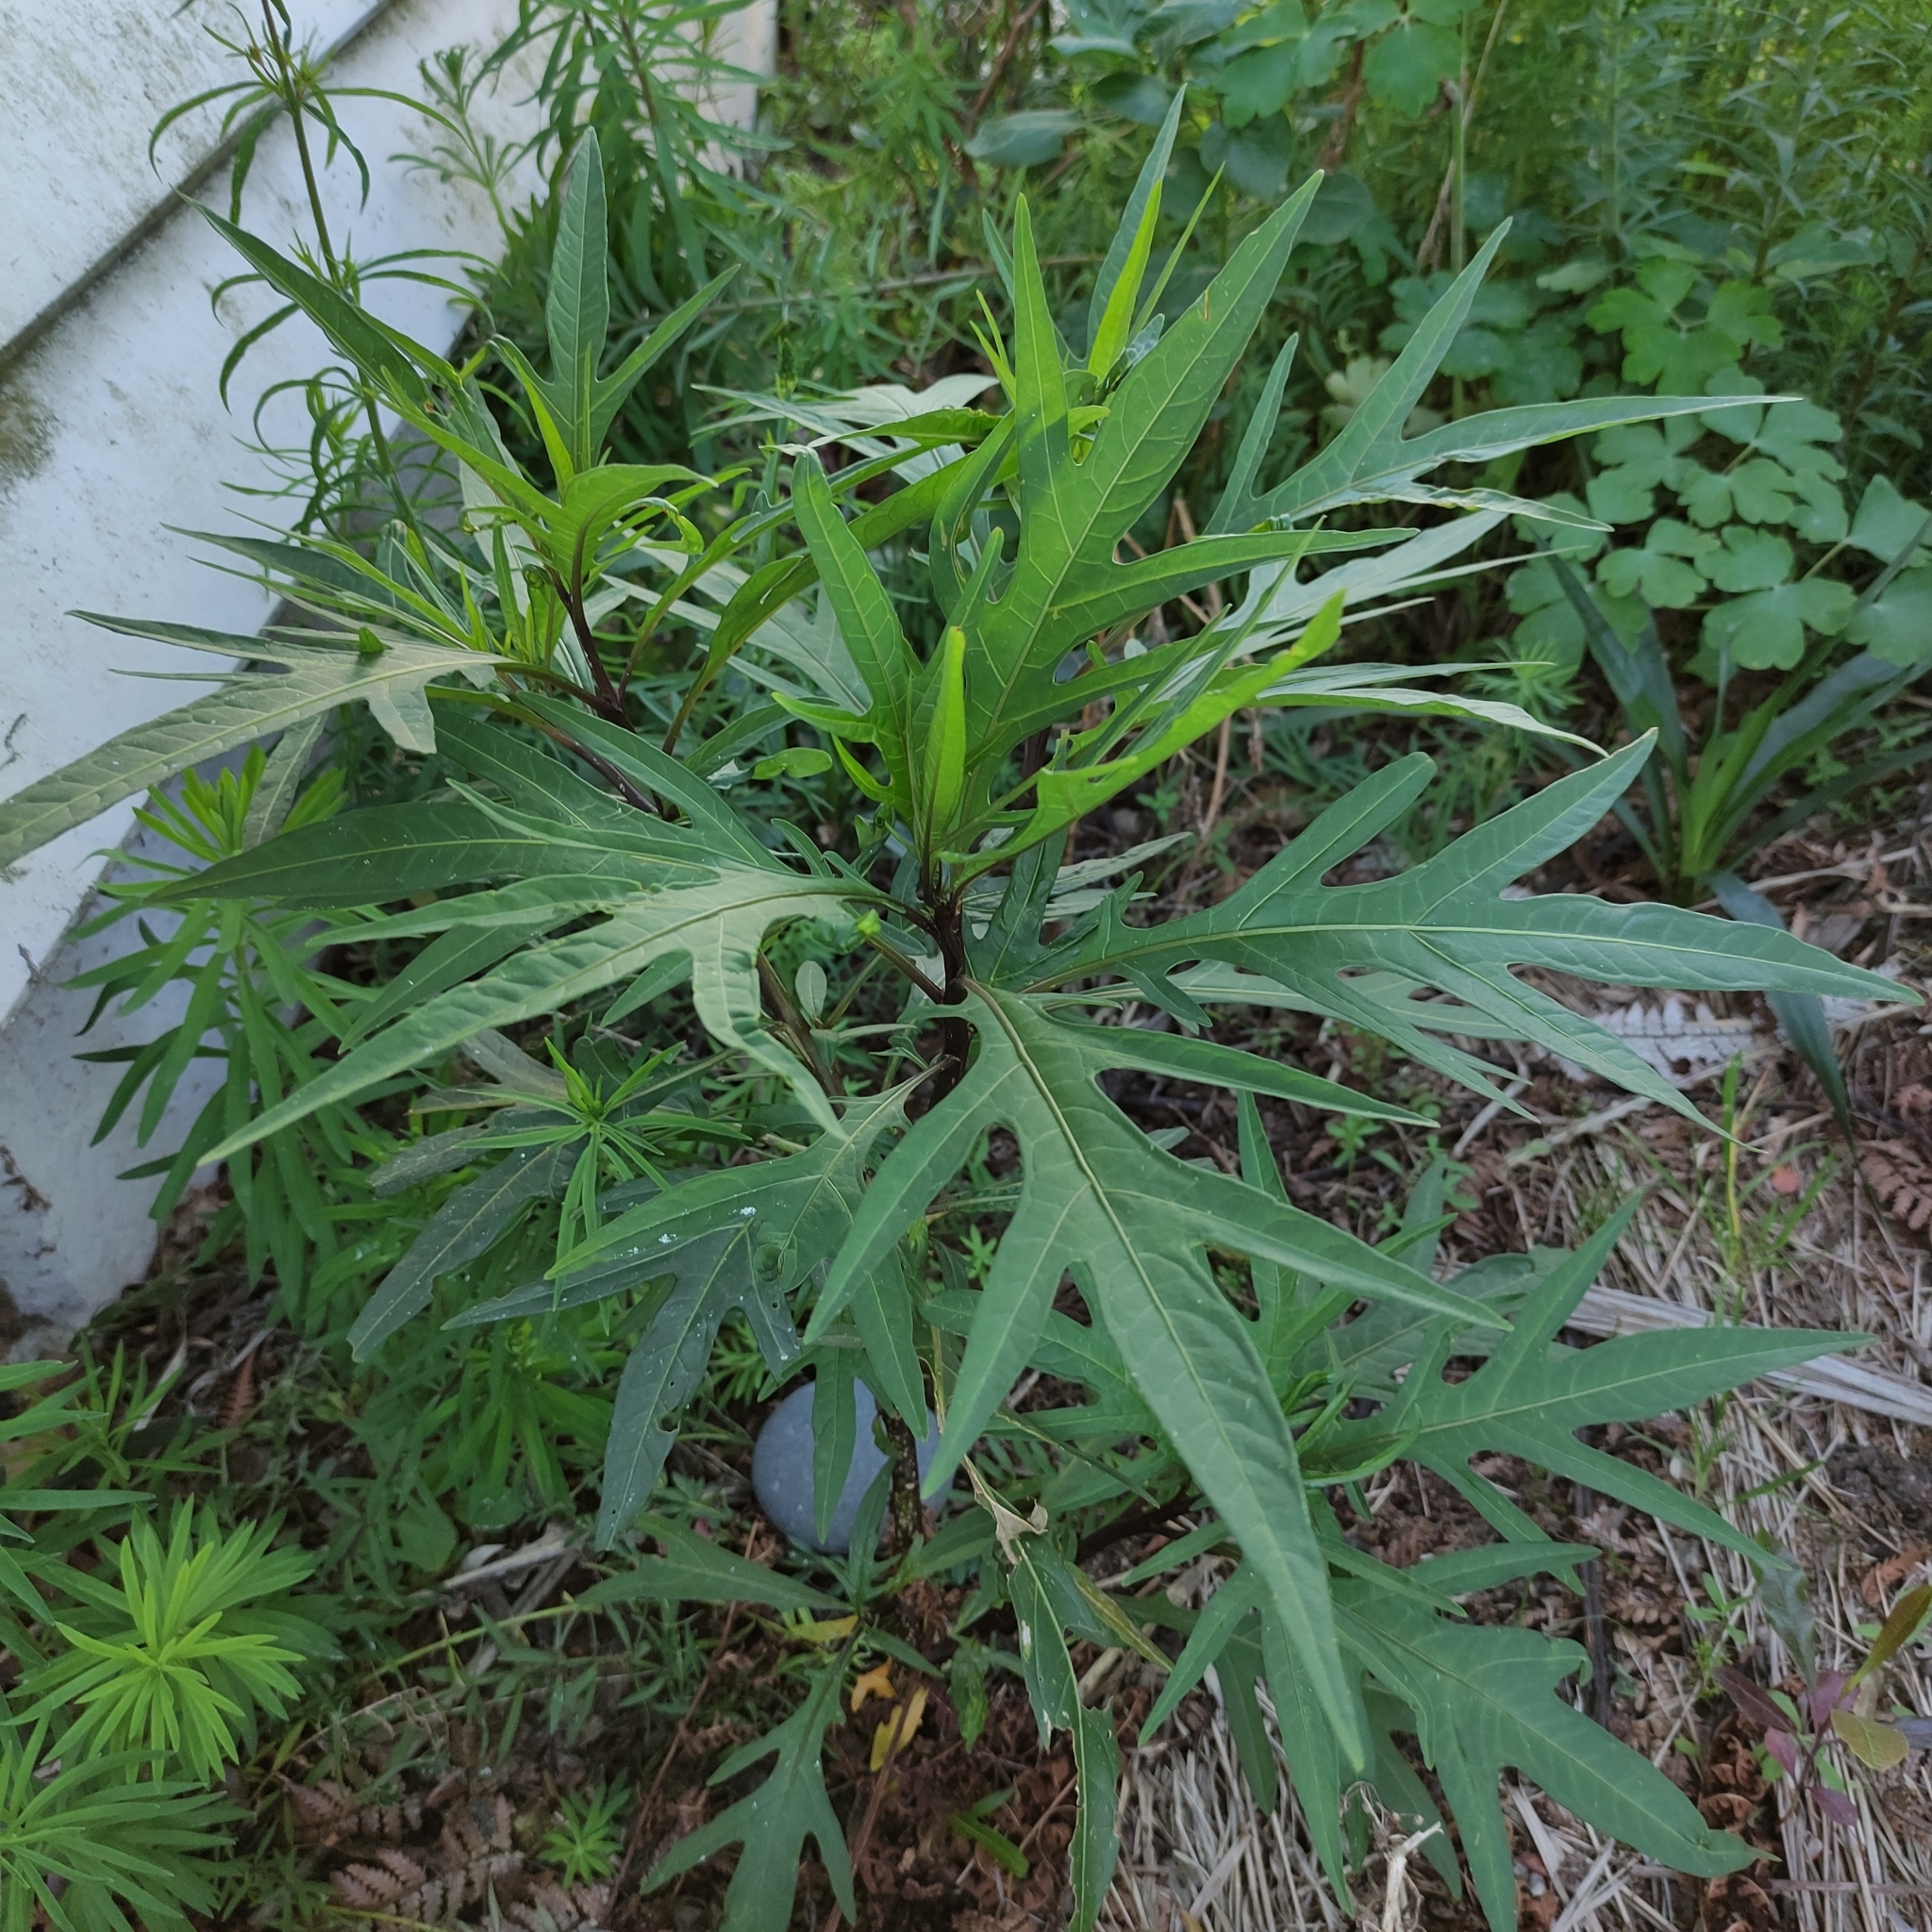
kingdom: Plantae
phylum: Tracheophyta
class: Magnoliopsida
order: Solanales
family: Solanaceae
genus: Solanum
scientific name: Solanum laciniatum
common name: Kangaroo-apple
